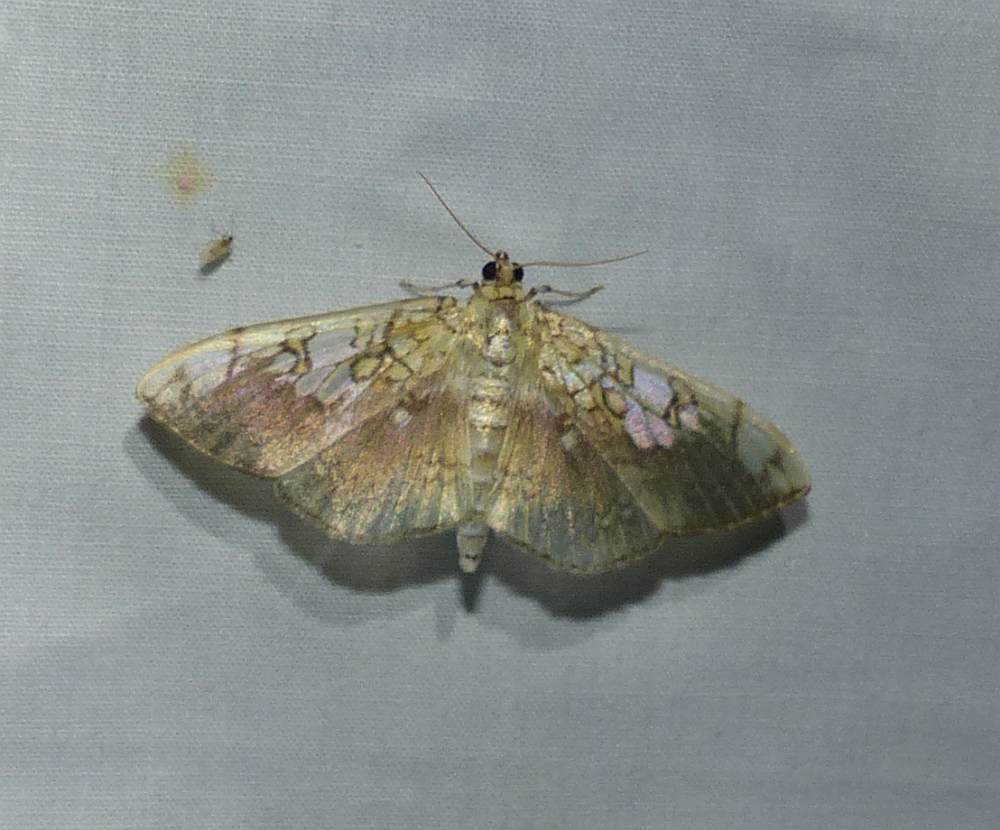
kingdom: Animalia
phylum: Arthropoda
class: Insecta
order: Lepidoptera
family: Crambidae
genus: Pantographa
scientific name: Pantographa limata
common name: Basswood leafroller moth
